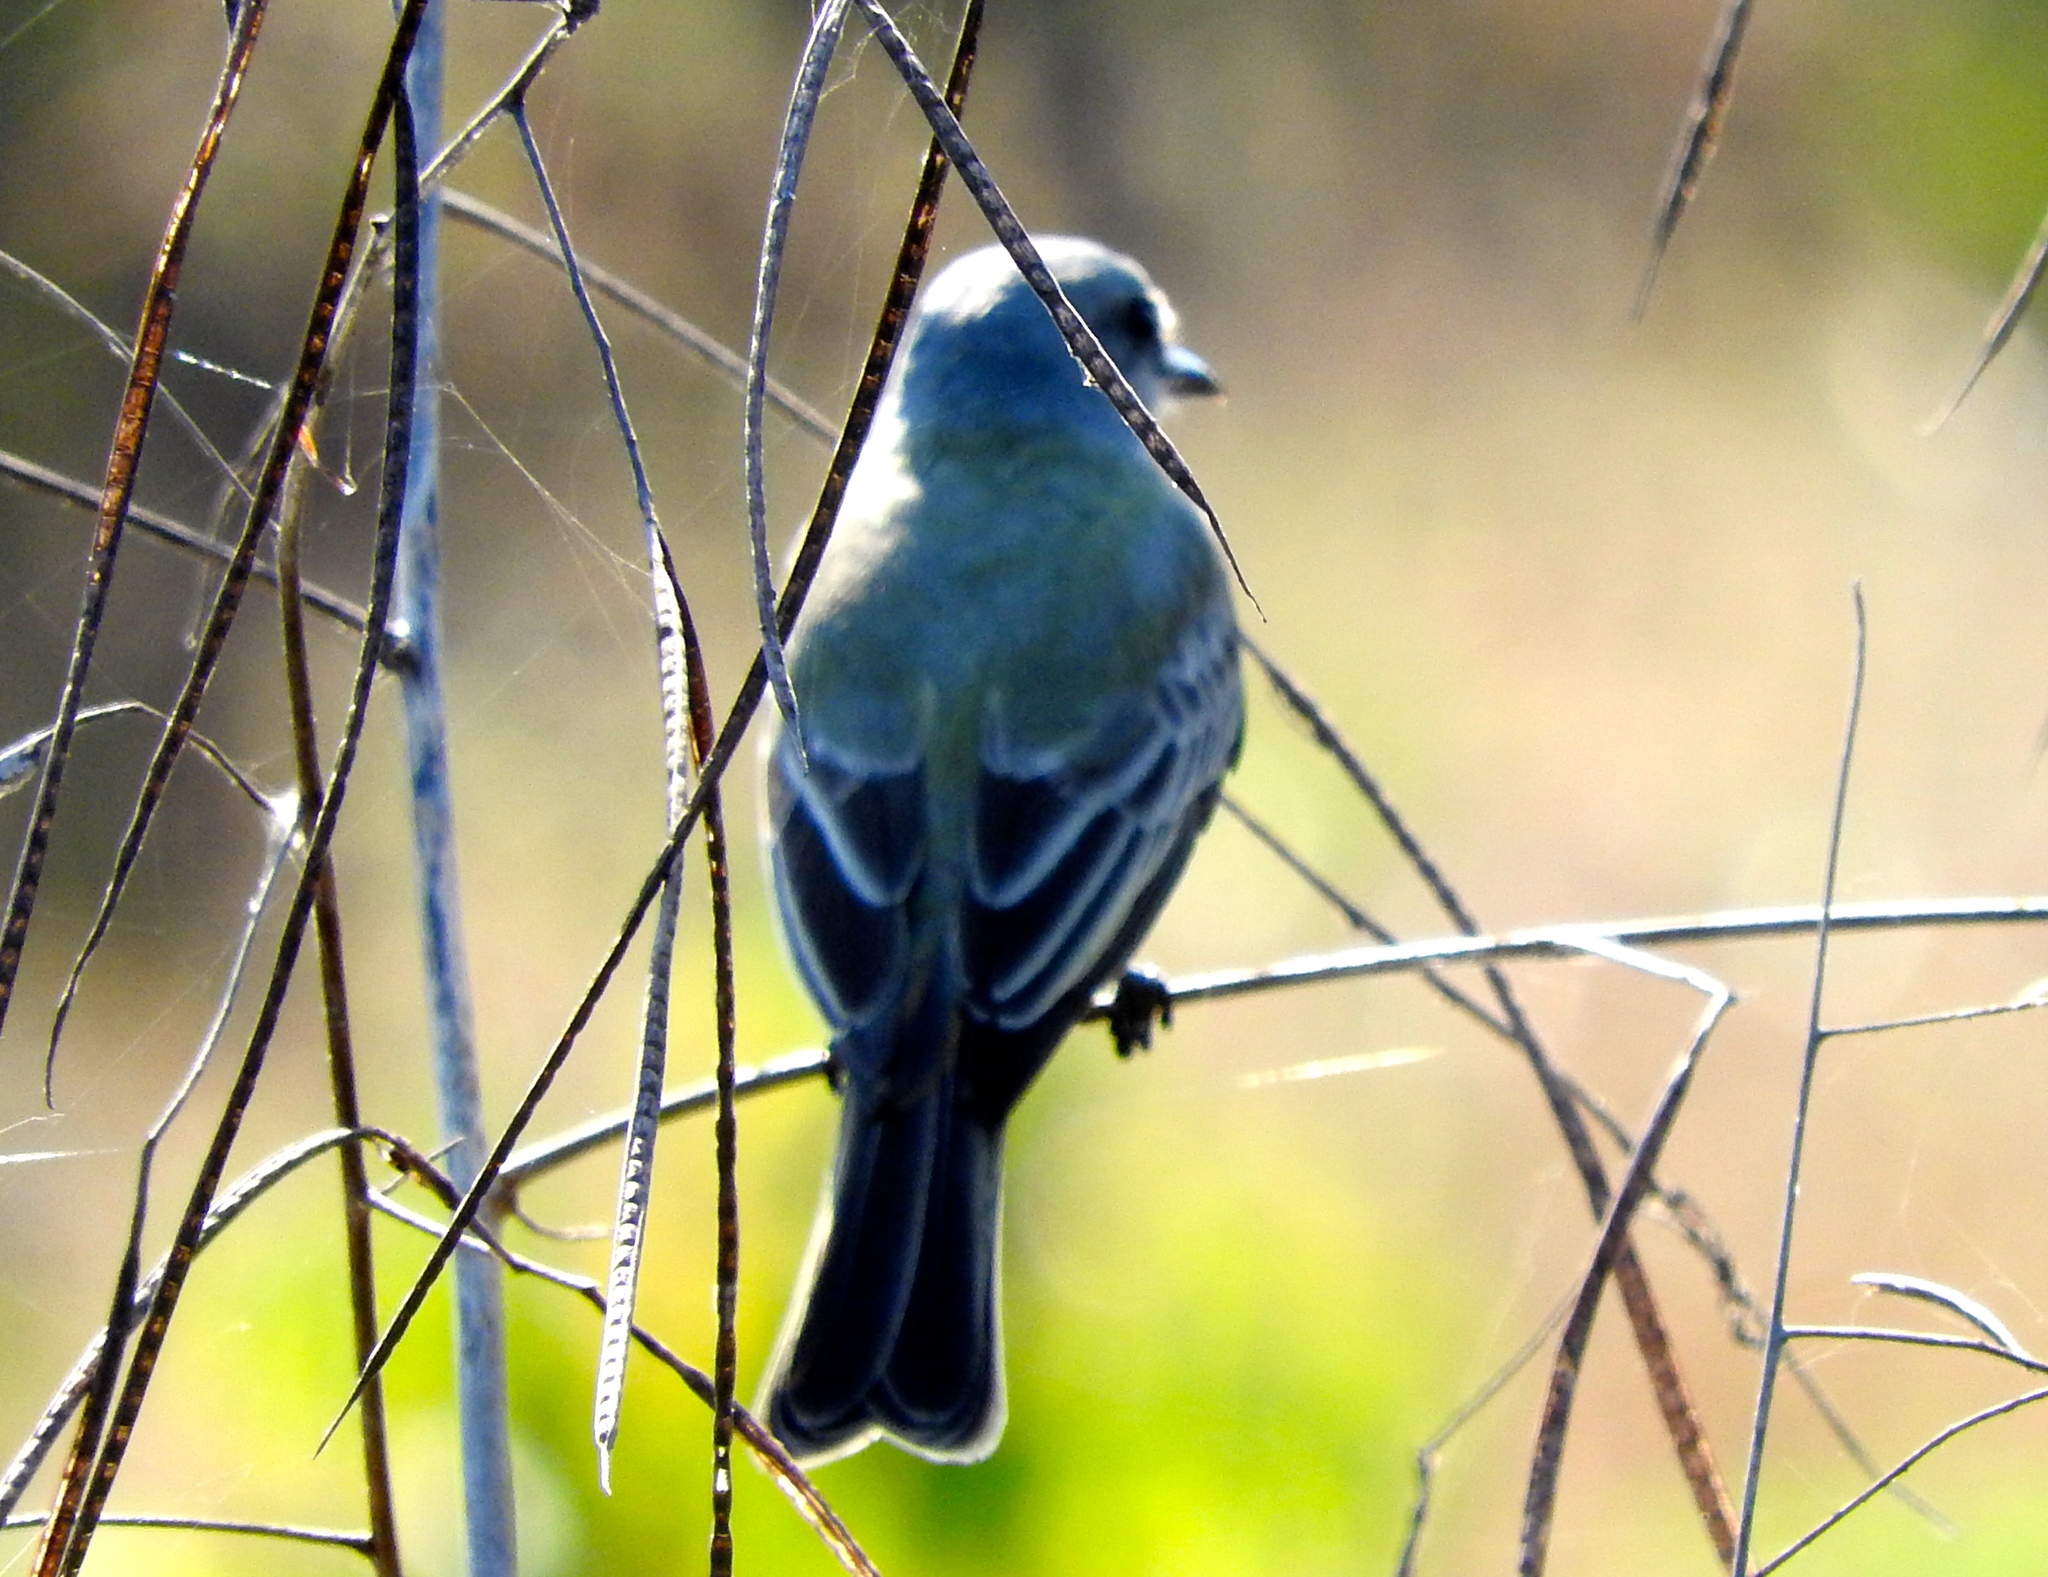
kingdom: Animalia
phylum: Chordata
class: Aves
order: Passeriformes
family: Tyrannidae
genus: Tyrannus
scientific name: Tyrannus
